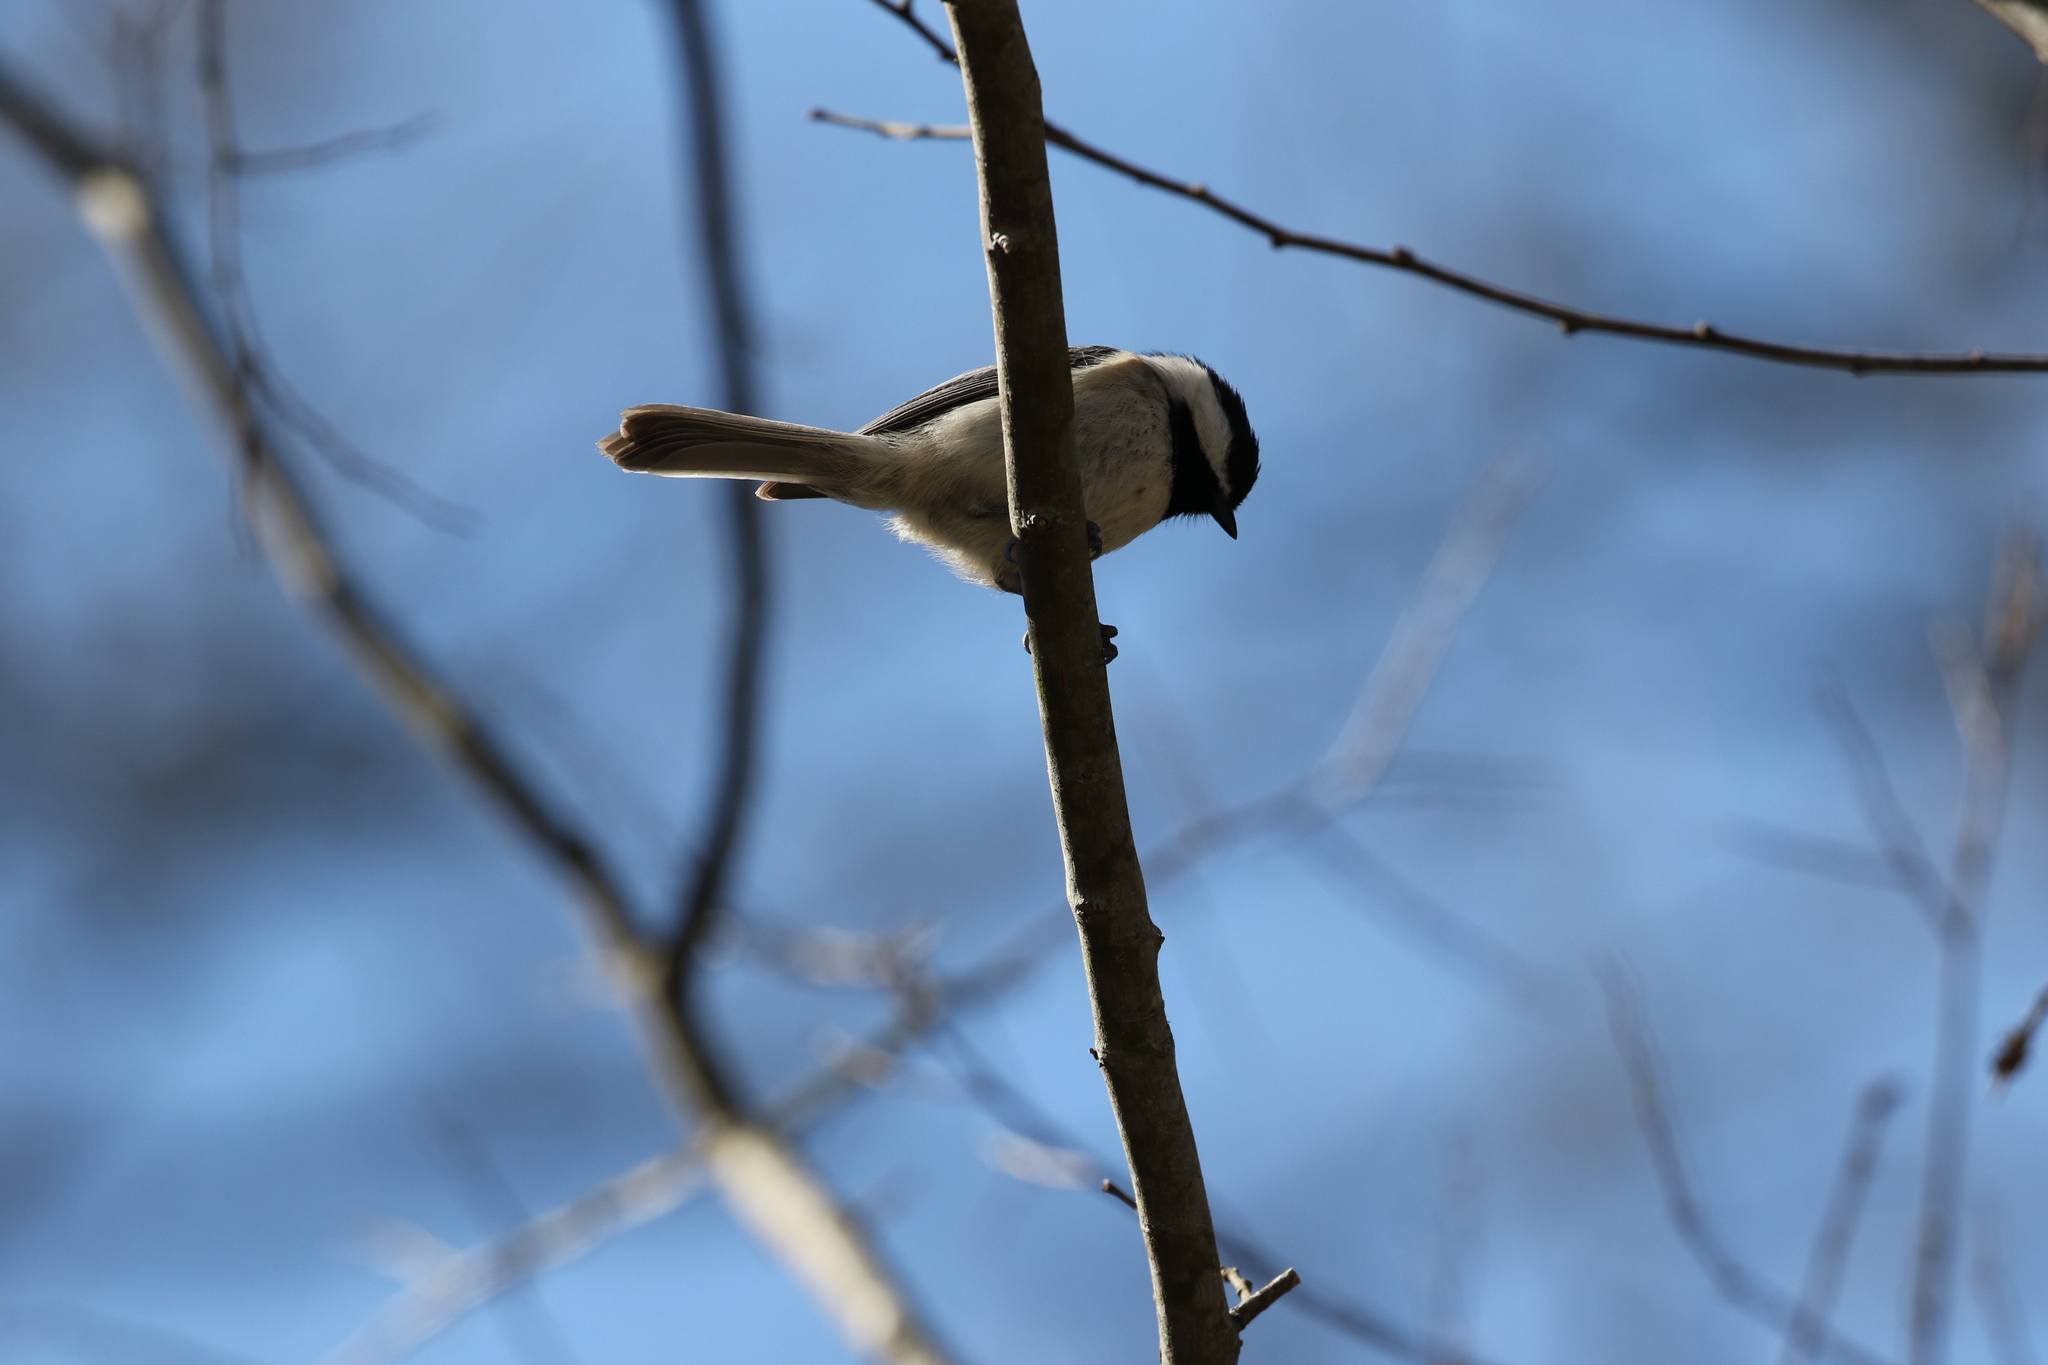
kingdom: Animalia
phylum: Chordata
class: Aves
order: Passeriformes
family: Paridae
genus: Poecile
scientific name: Poecile carolinensis
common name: Carolina chickadee
